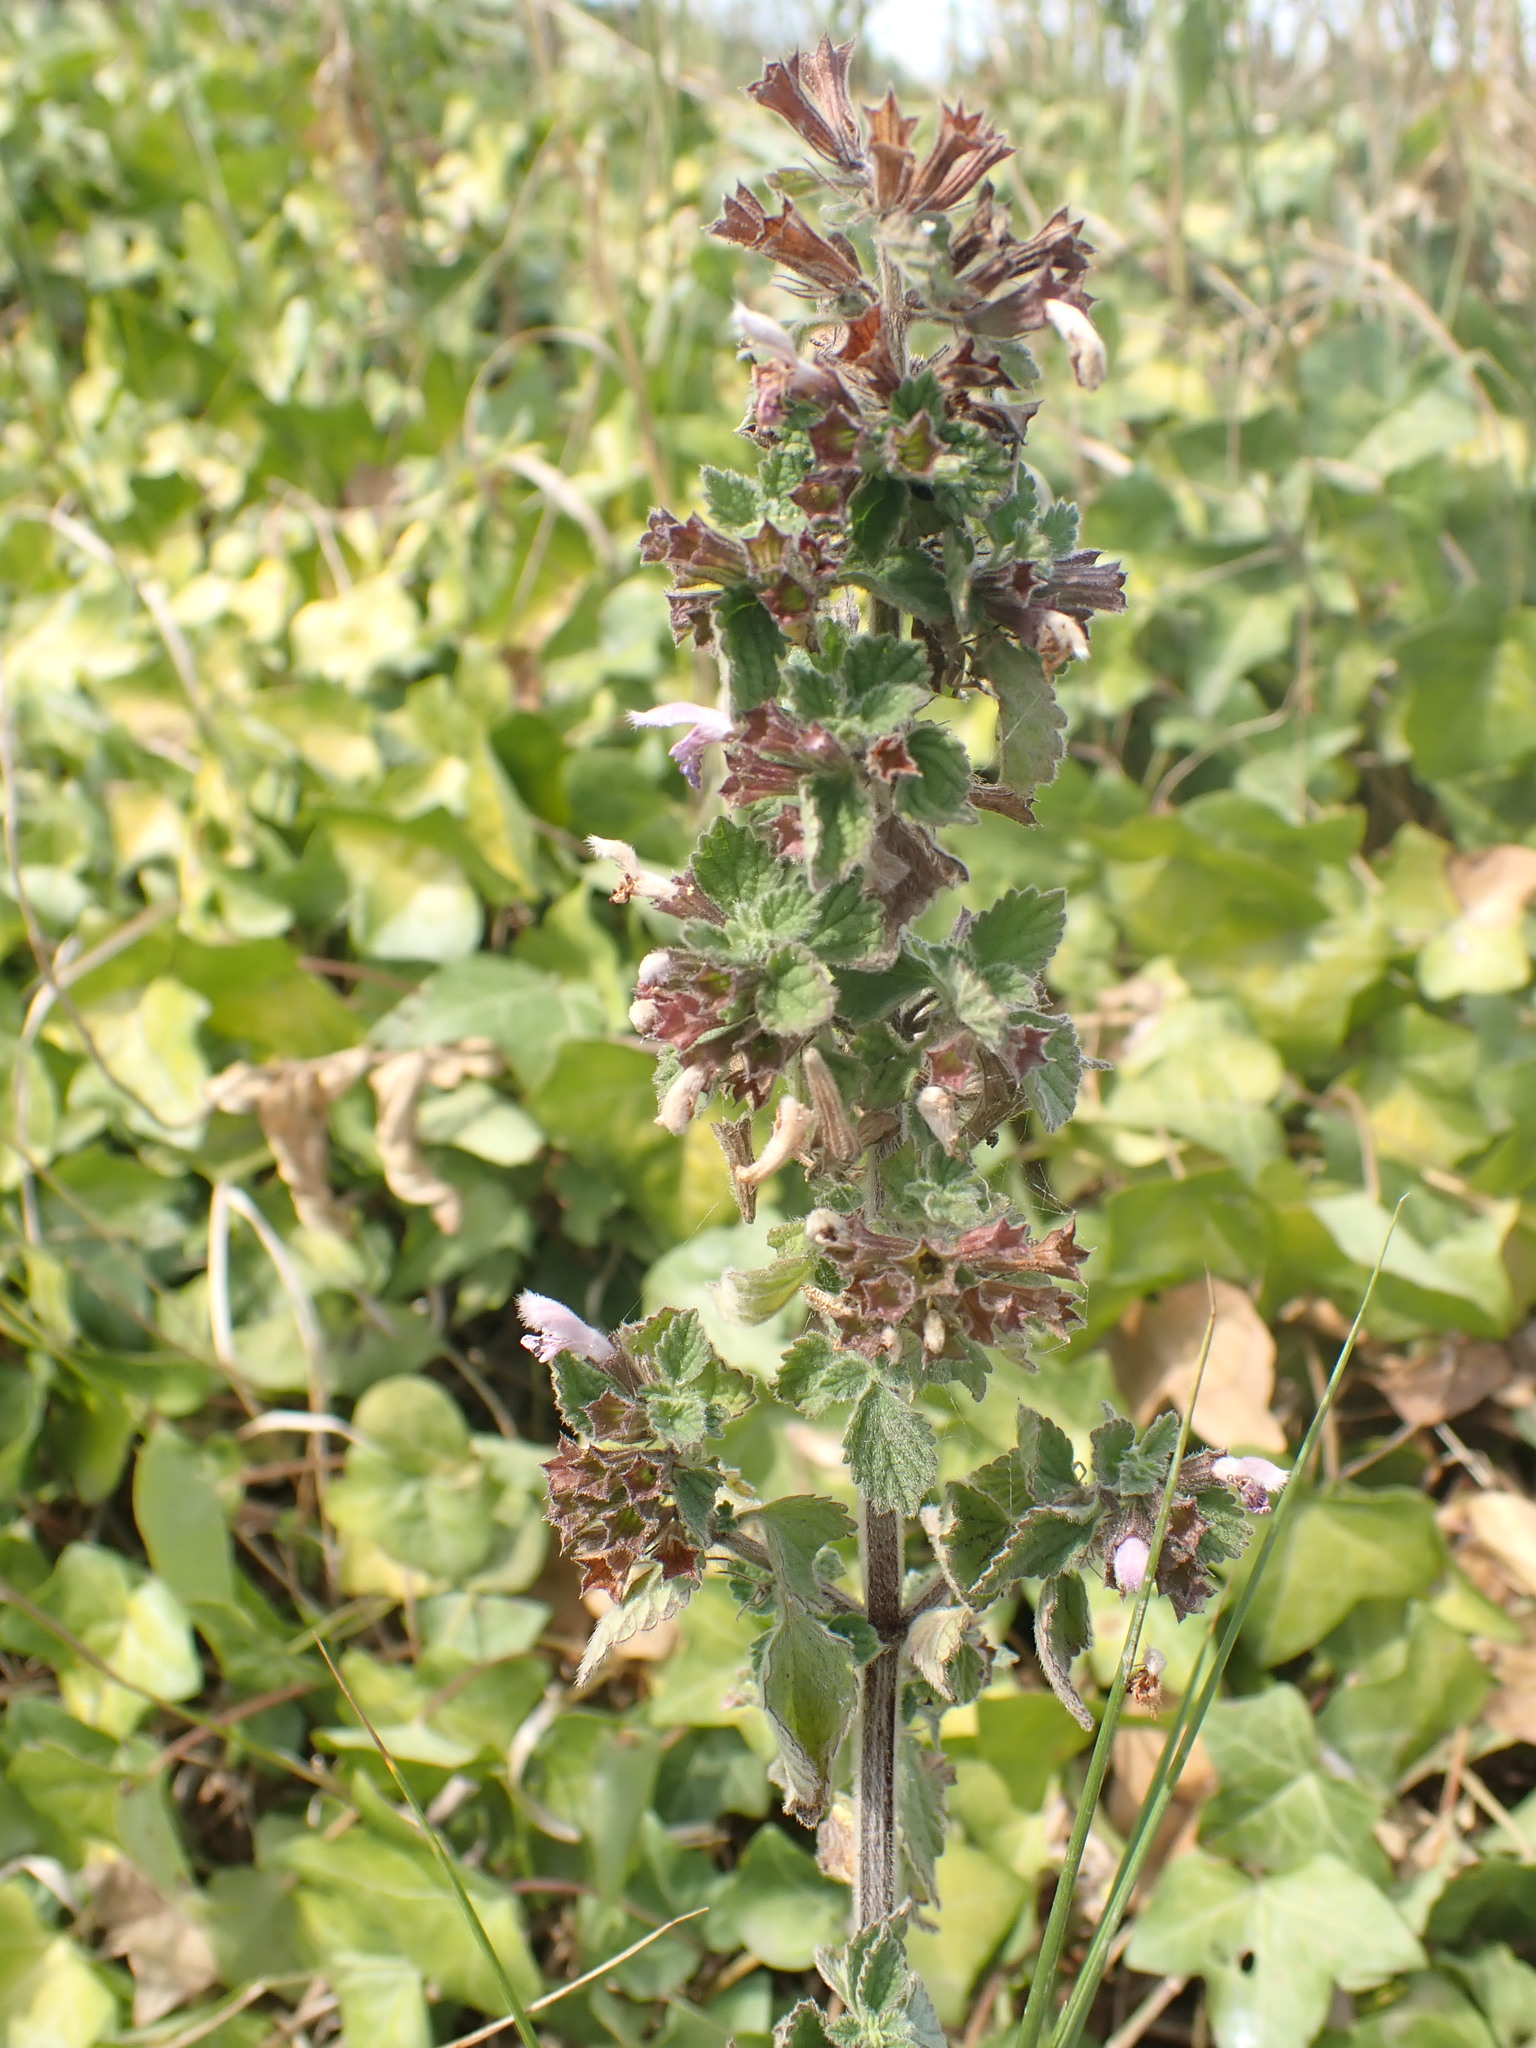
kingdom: Plantae
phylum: Tracheophyta
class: Magnoliopsida
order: Lamiales
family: Lamiaceae
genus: Ballota
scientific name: Ballota nigra
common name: Black horehound
